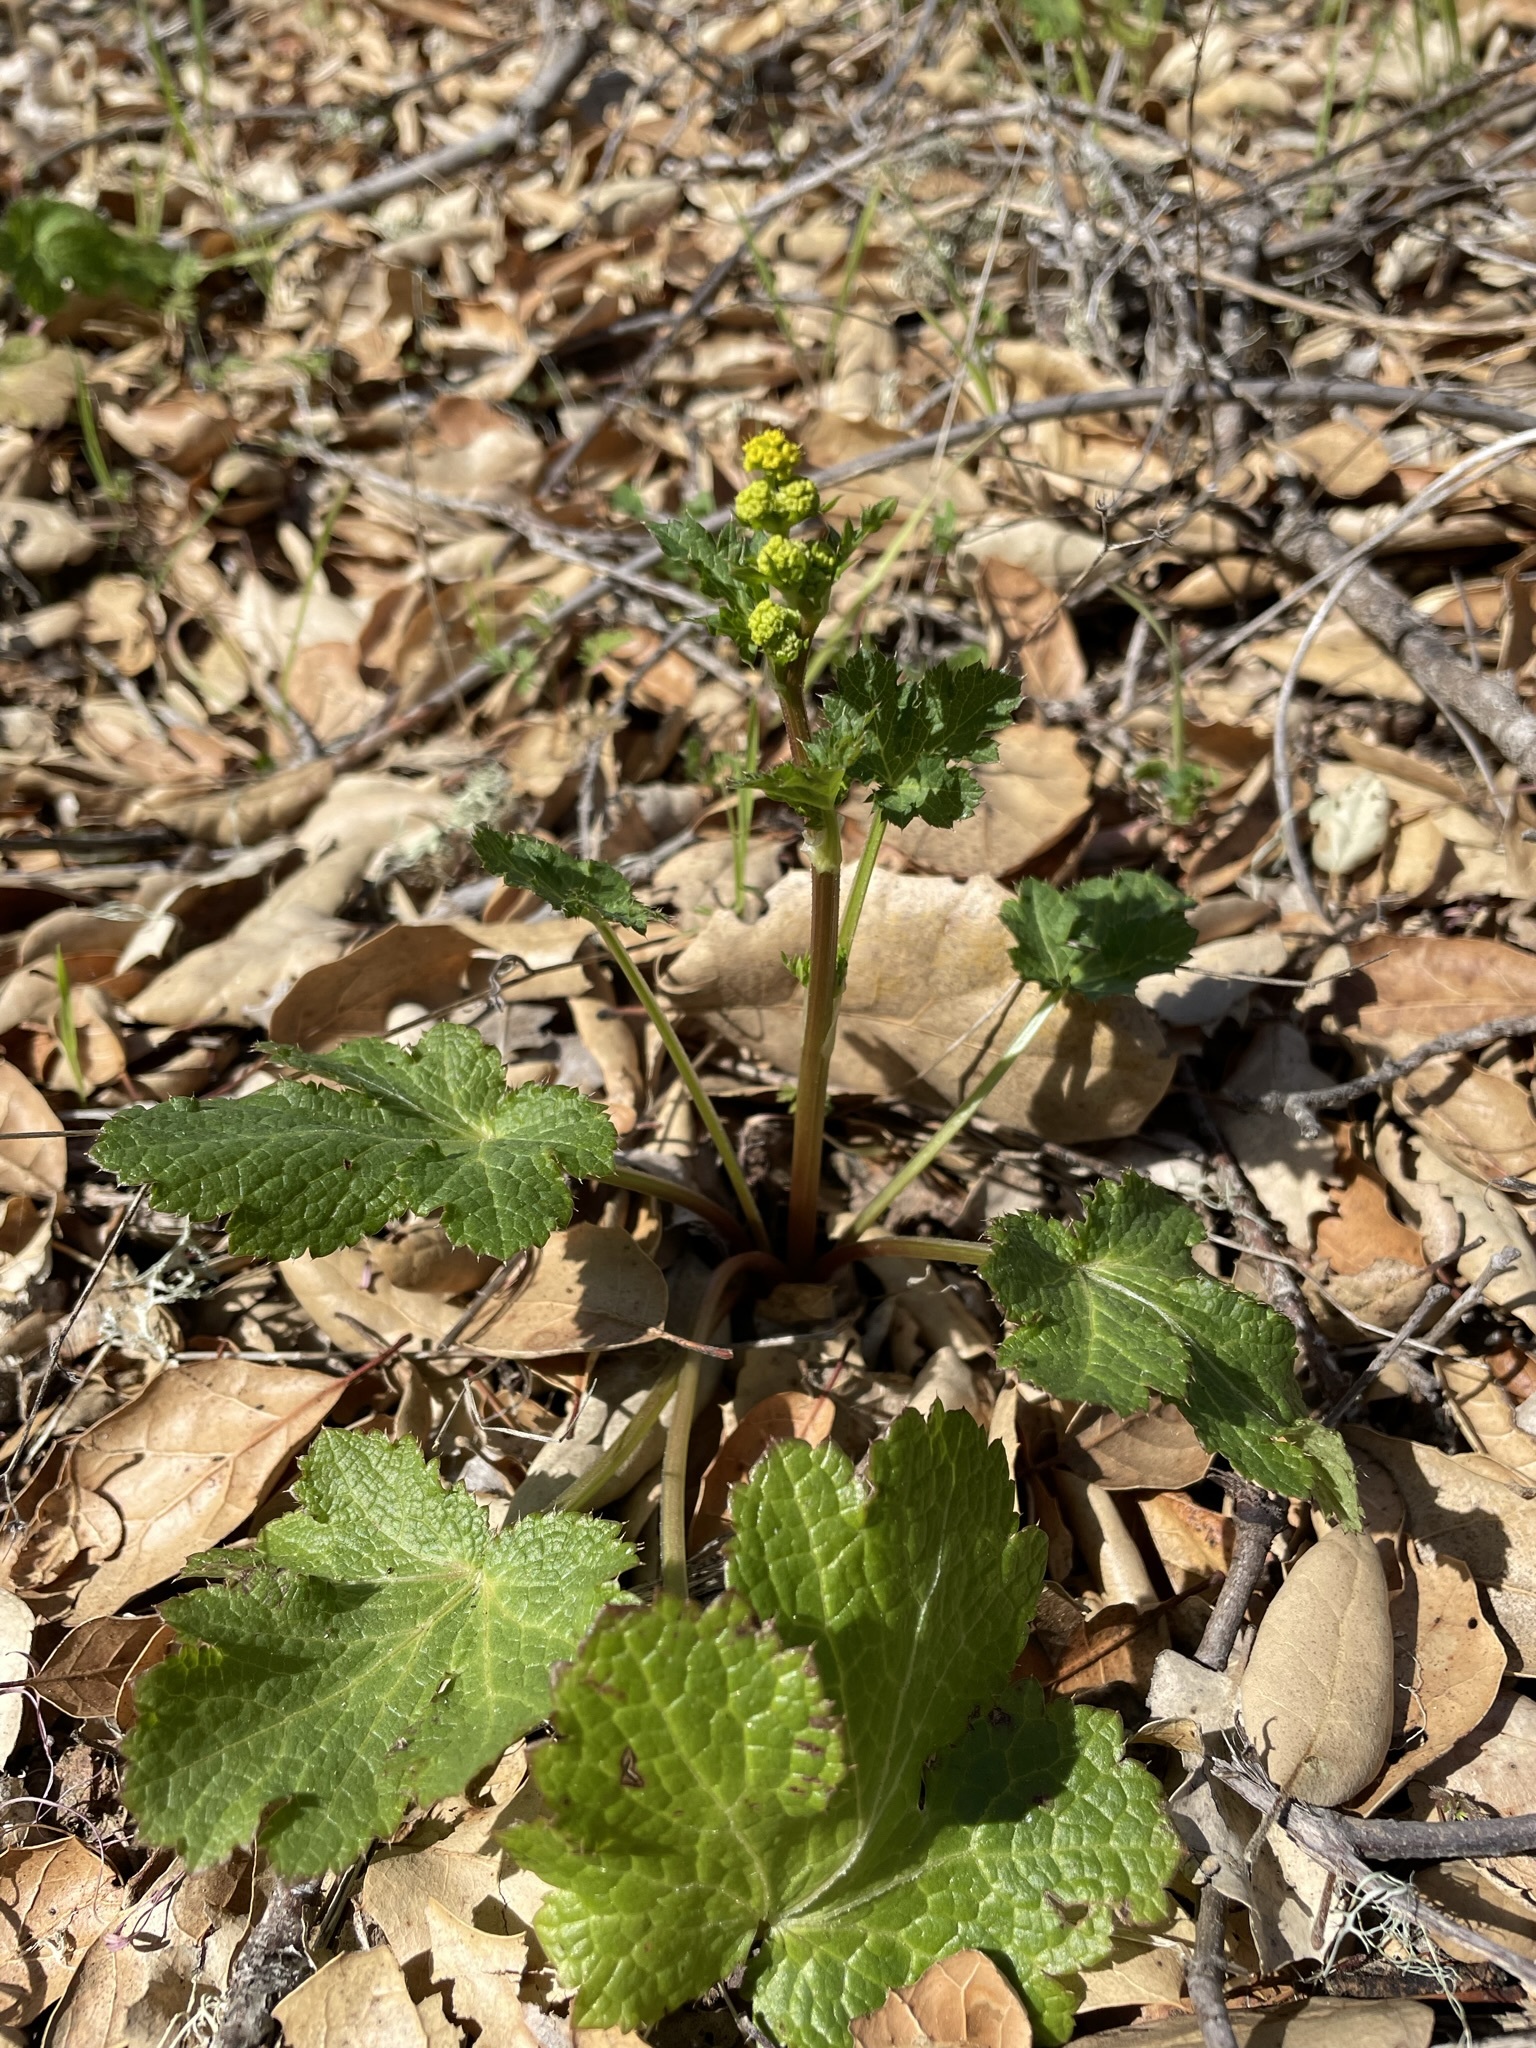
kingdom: Plantae
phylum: Tracheophyta
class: Magnoliopsida
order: Apiales
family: Apiaceae
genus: Sanicula
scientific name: Sanicula crassicaulis
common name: Western snakeroot
